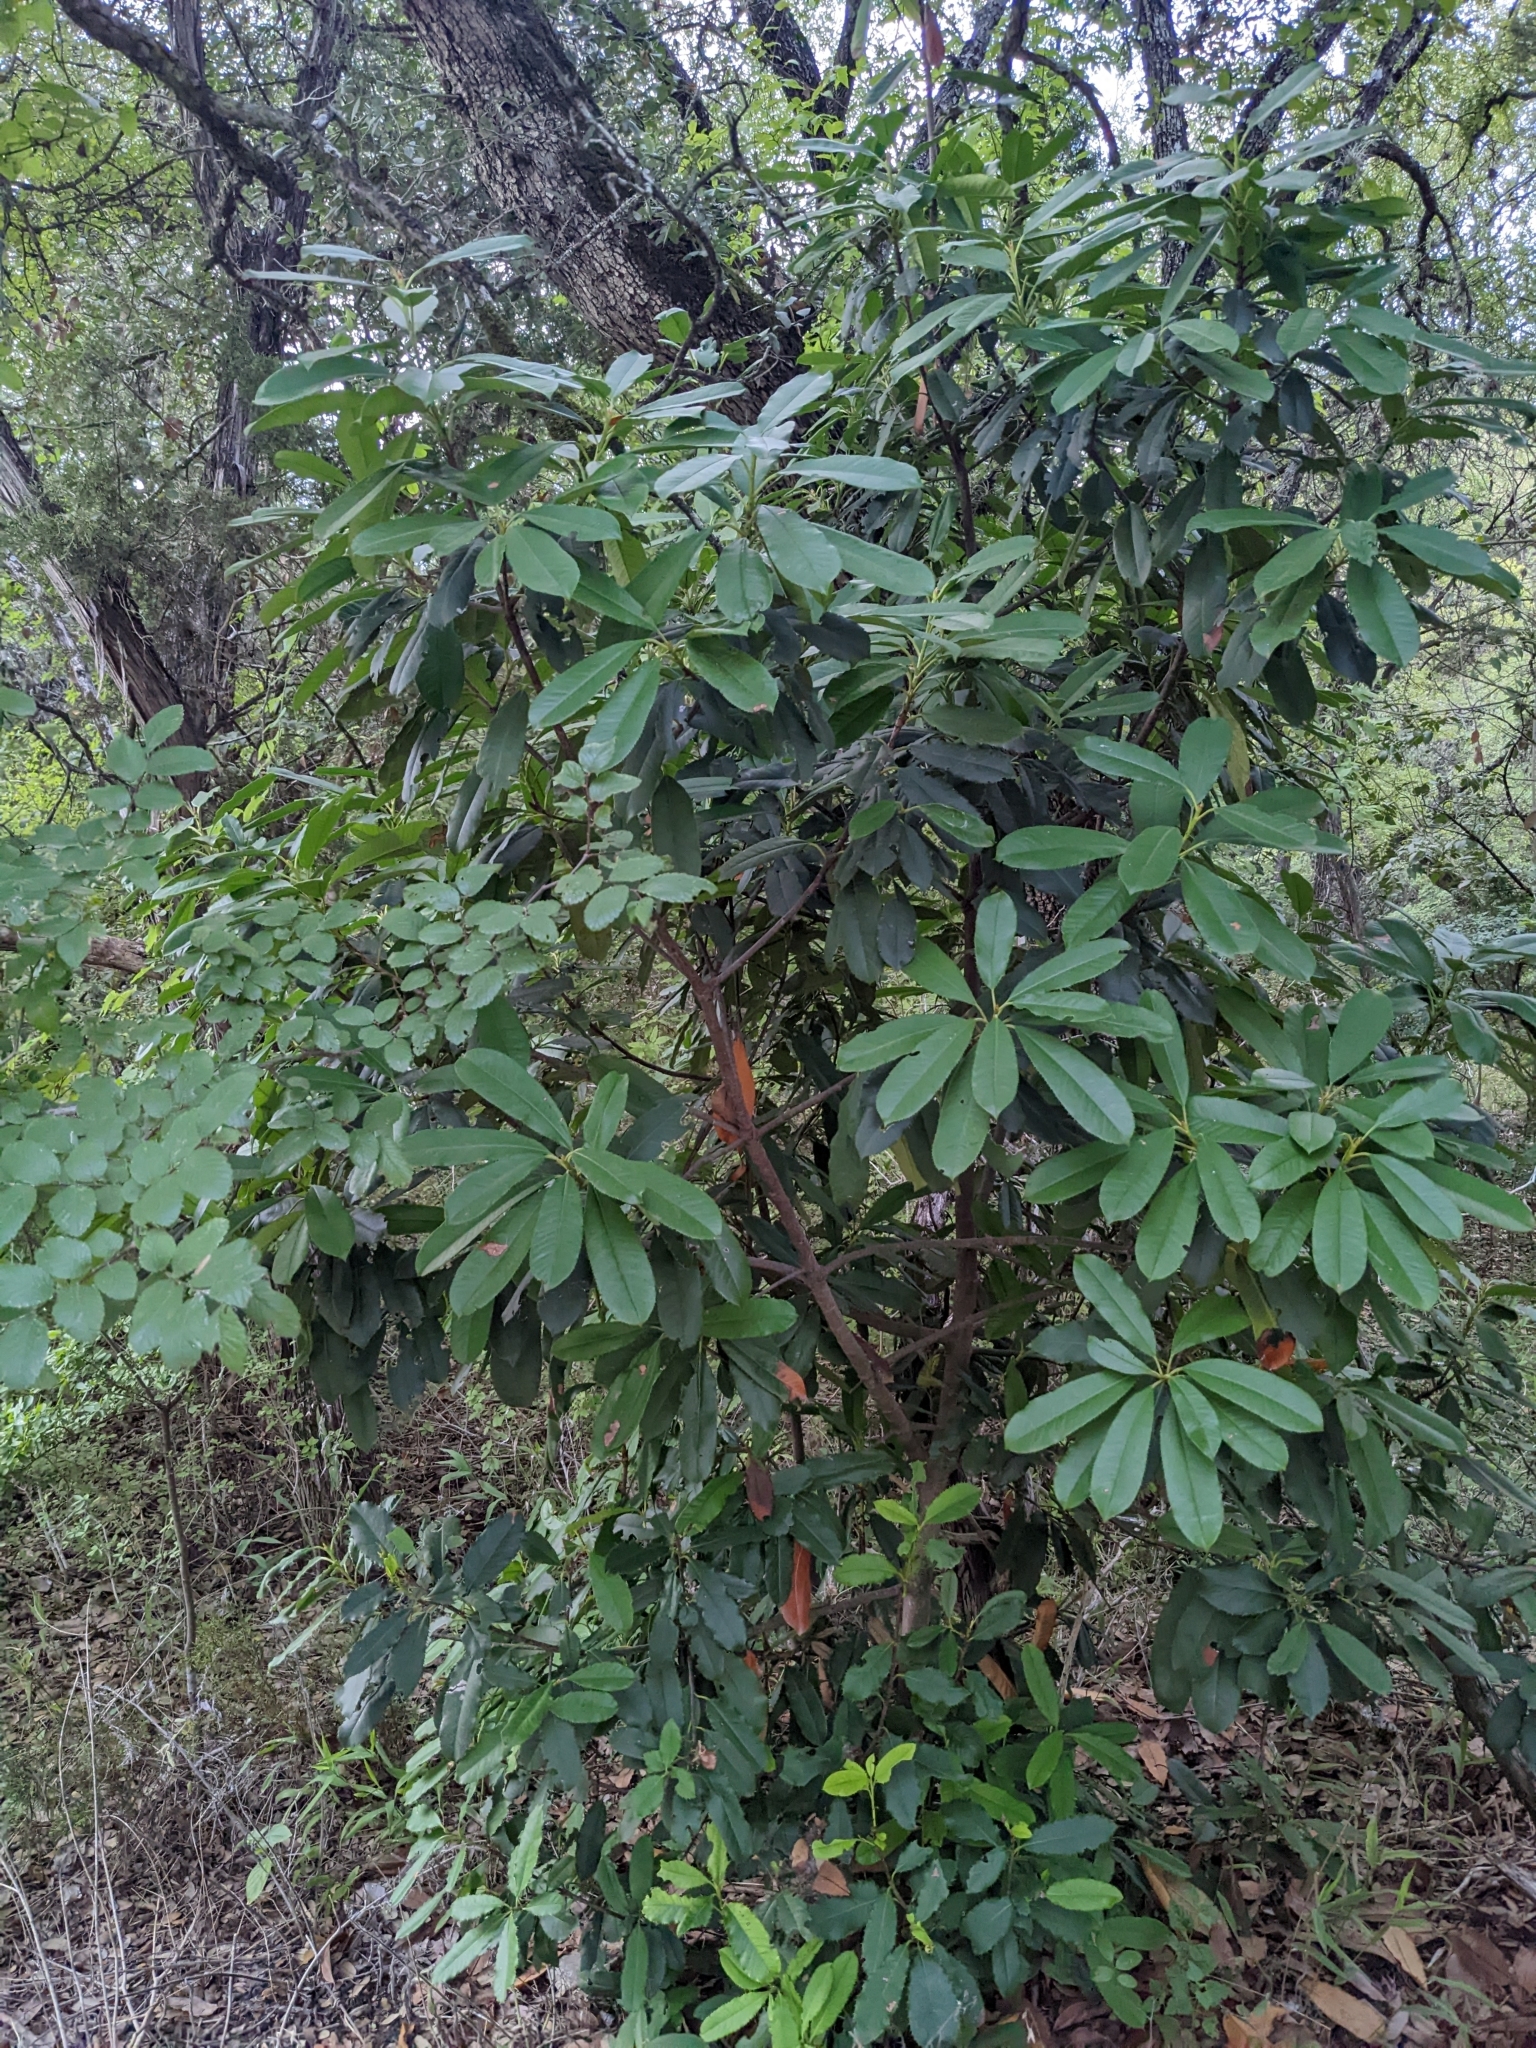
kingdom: Plantae
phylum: Tracheophyta
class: Magnoliopsida
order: Rosales
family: Rosaceae
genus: Photinia
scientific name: Photinia serratifolia
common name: Taiwanese photinia
